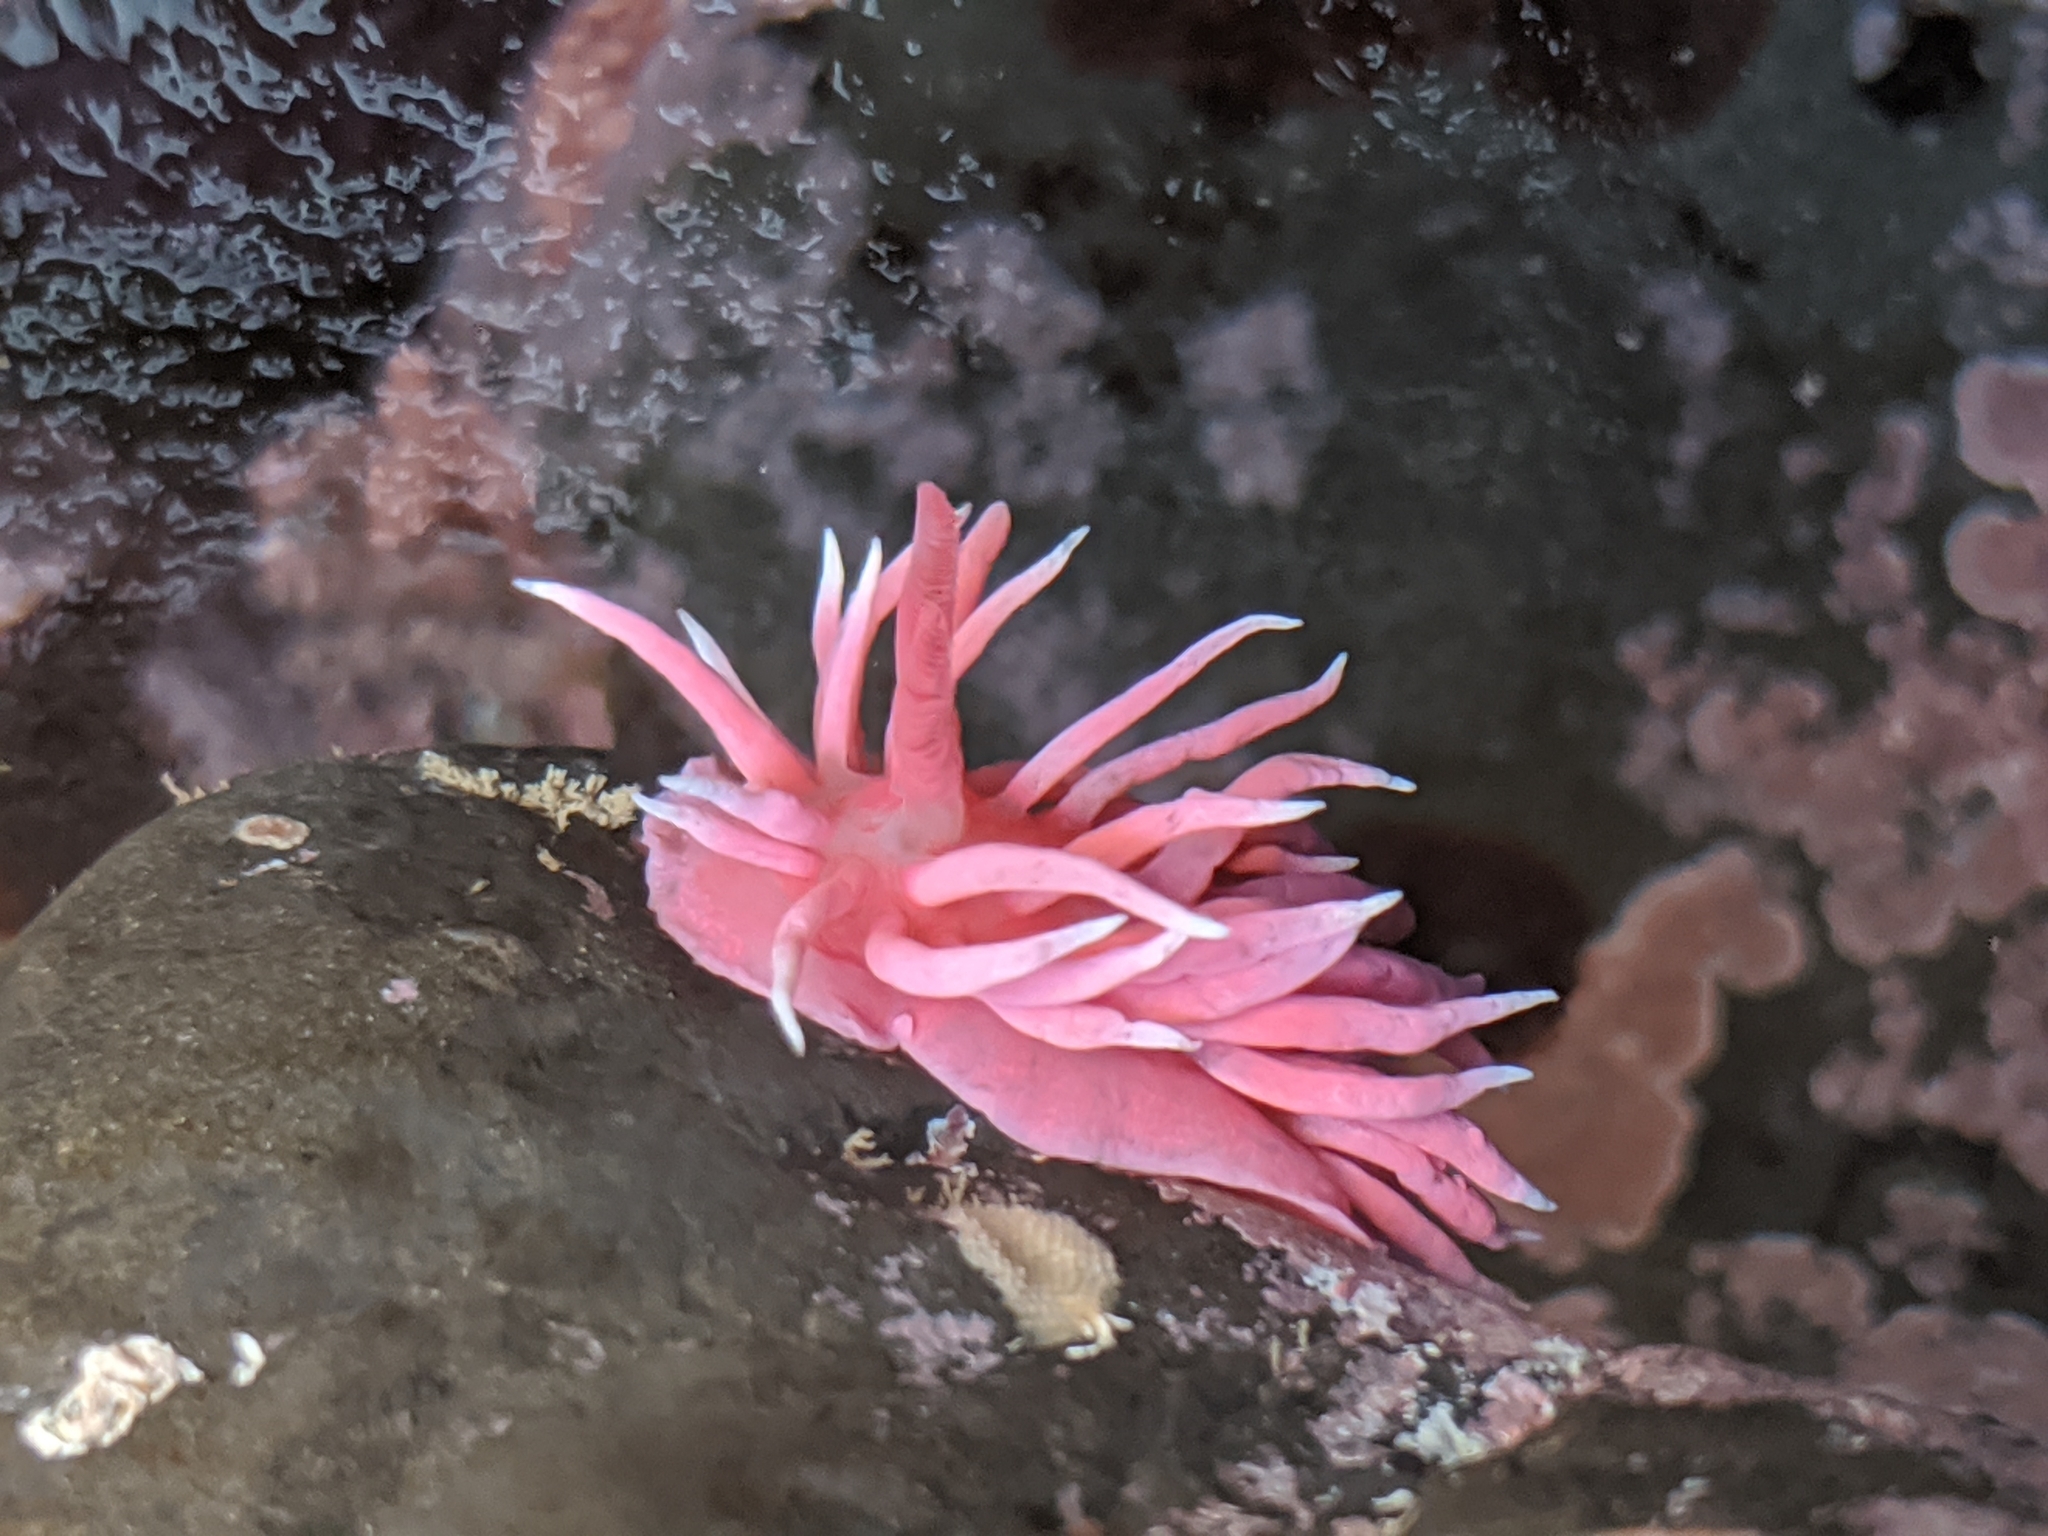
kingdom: Animalia
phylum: Mollusca
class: Gastropoda
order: Nudibranchia
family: Goniodorididae
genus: Okenia
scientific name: Okenia
